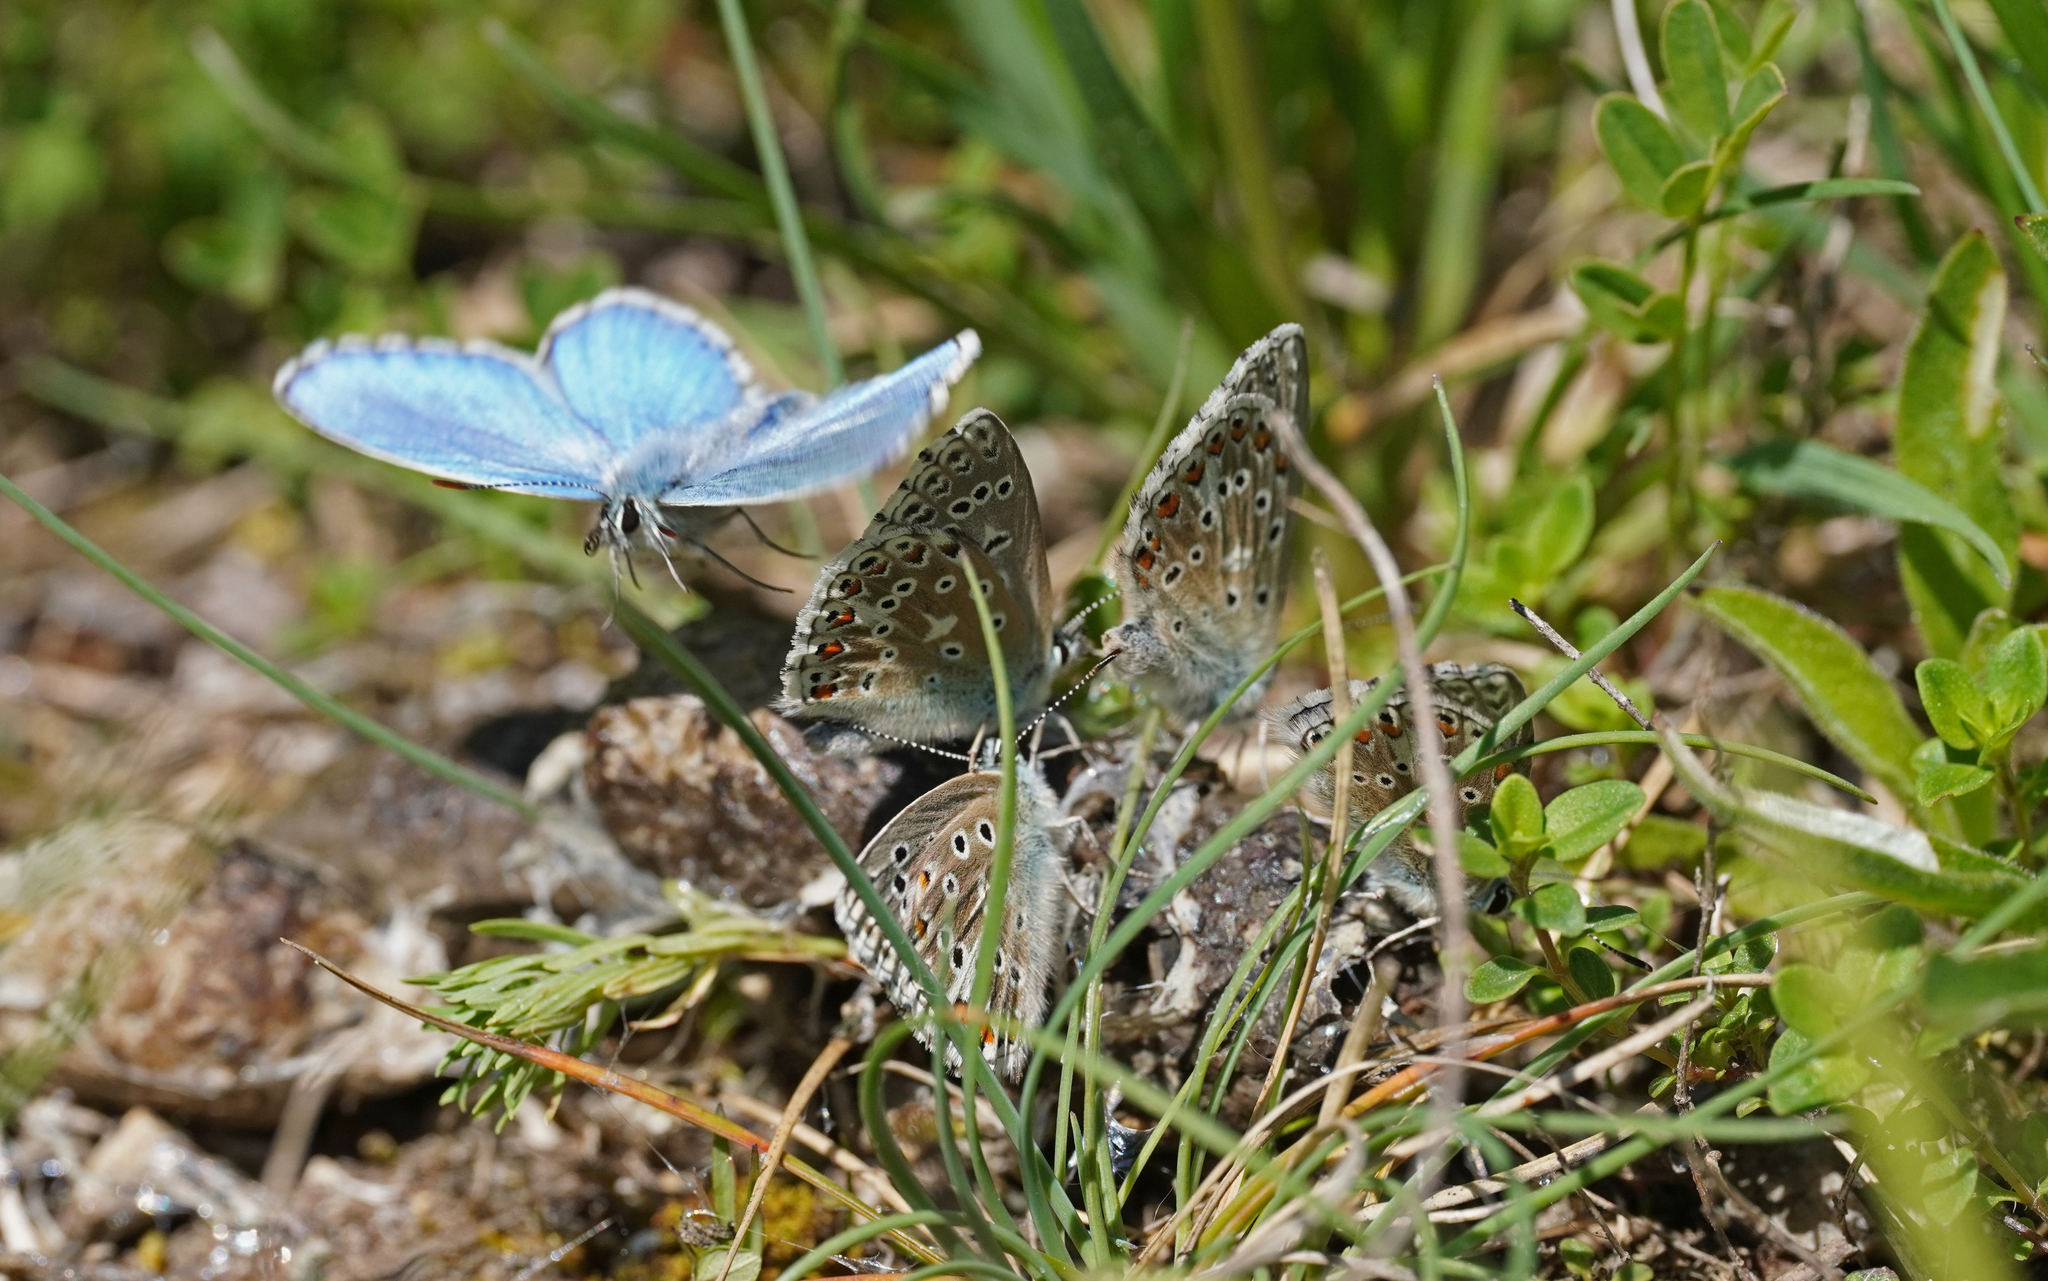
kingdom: Animalia
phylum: Arthropoda
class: Insecta
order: Lepidoptera
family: Lycaenidae
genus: Lysandra
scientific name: Lysandra bellargus
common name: Adonis blue
